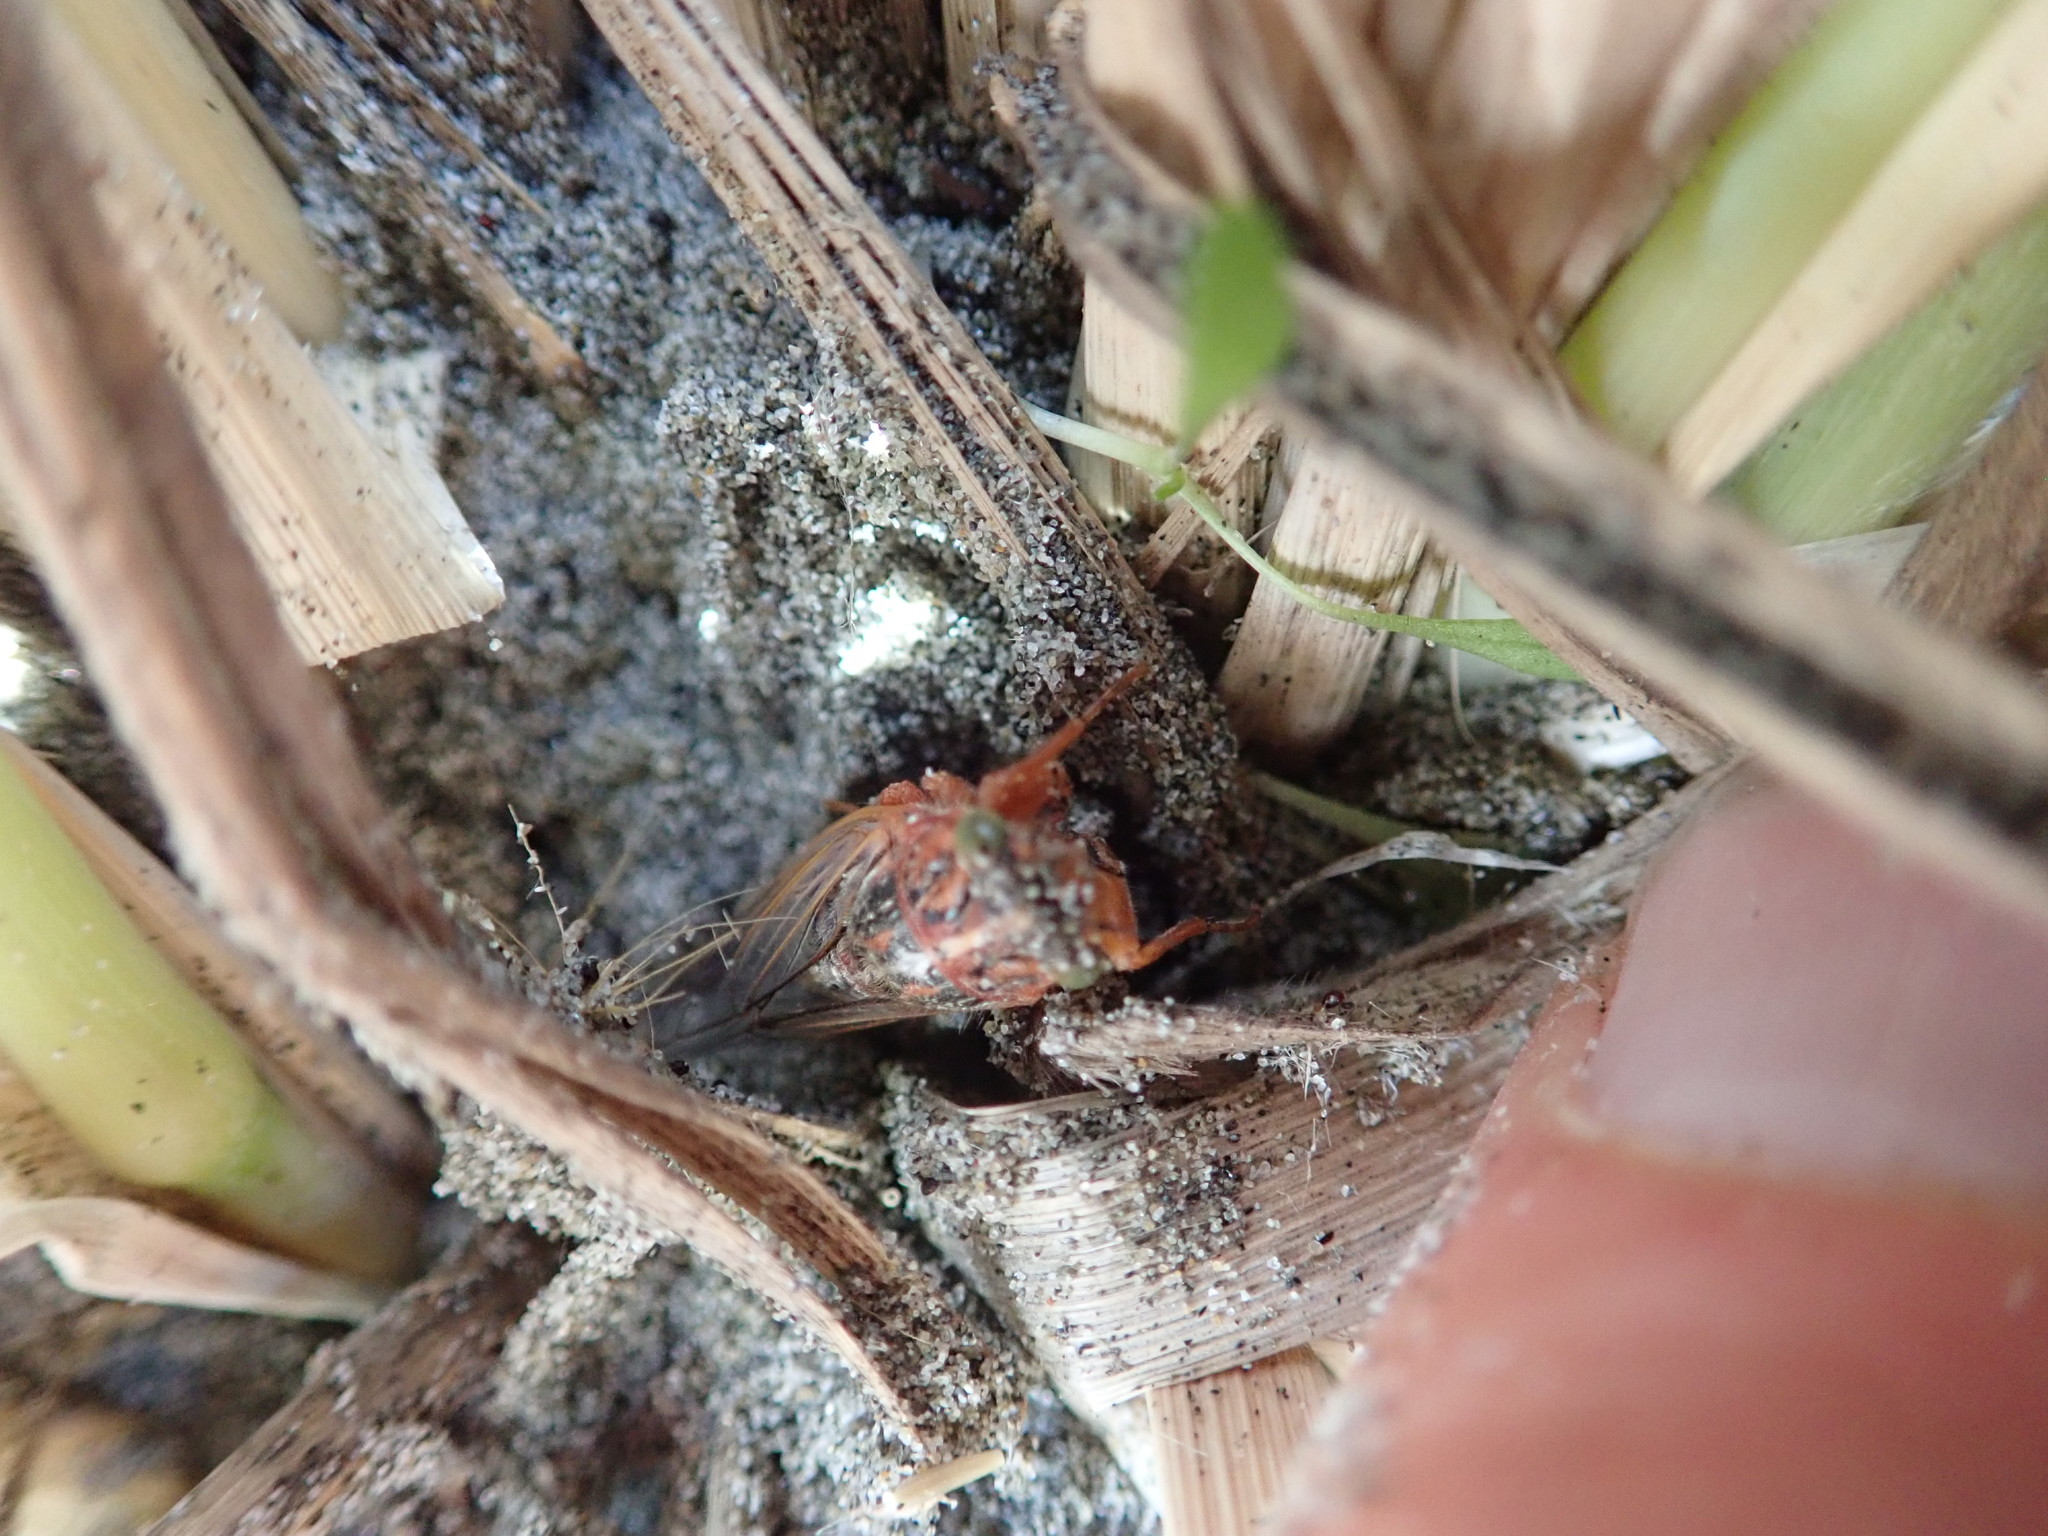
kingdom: Animalia
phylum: Arthropoda
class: Insecta
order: Hemiptera
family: Cicadidae
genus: Rhodopsalta
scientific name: Rhodopsalta leptomera
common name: Sand dune redtail cicada
